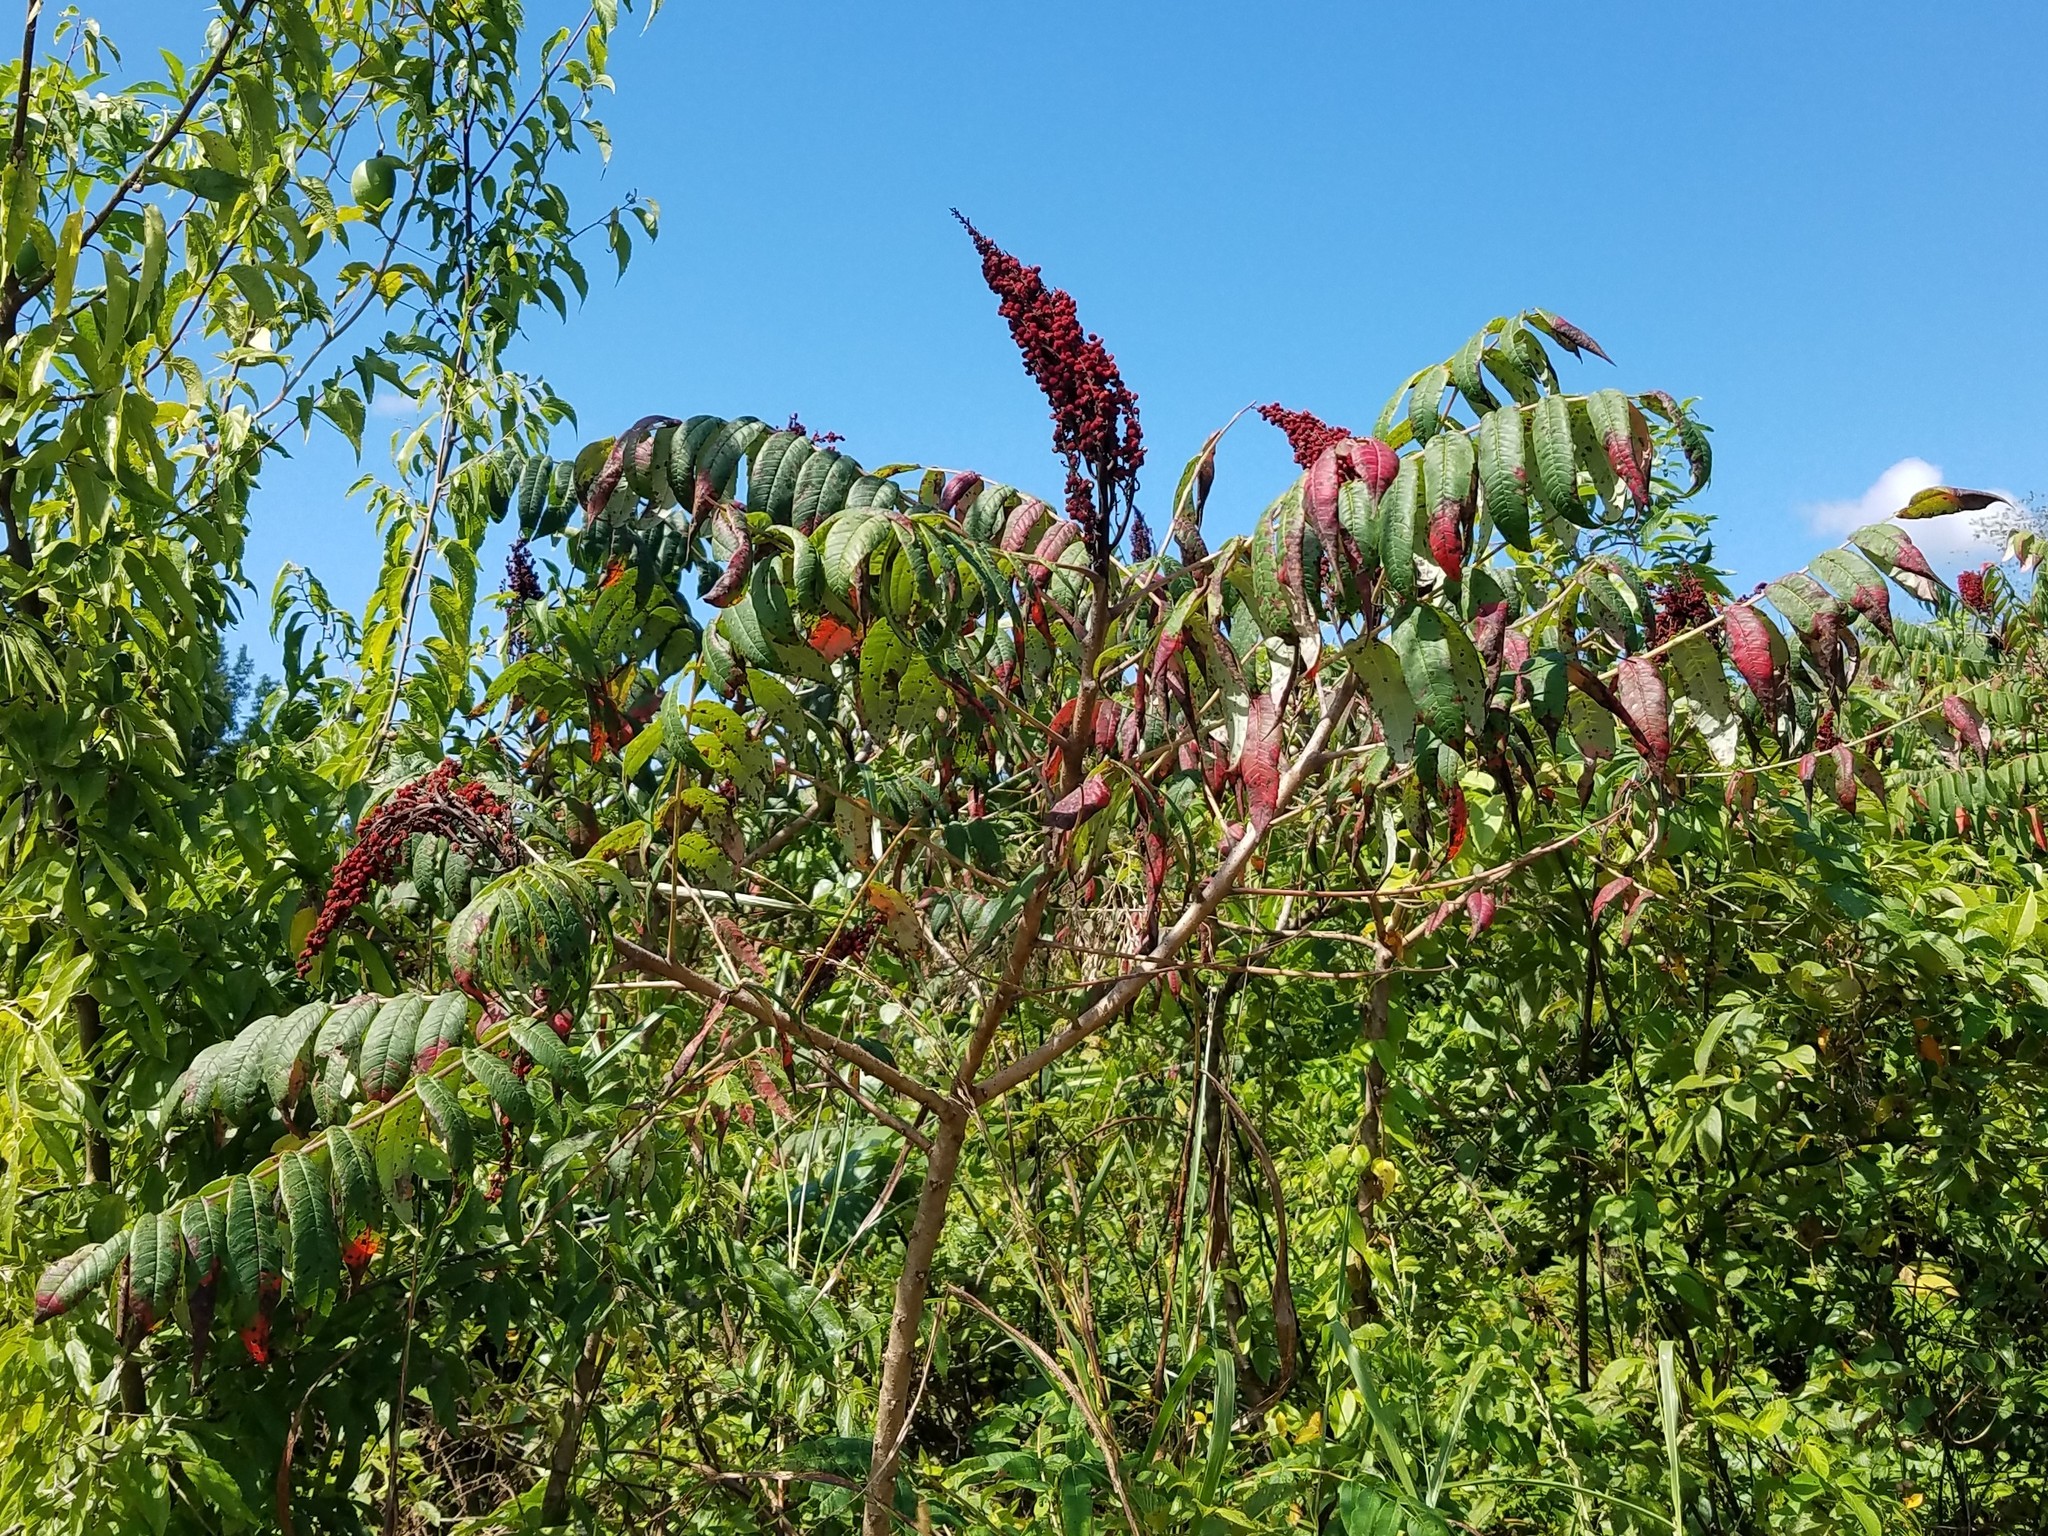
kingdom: Plantae
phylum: Tracheophyta
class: Magnoliopsida
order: Sapindales
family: Anacardiaceae
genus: Rhus
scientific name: Rhus glabra
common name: Scarlet sumac
